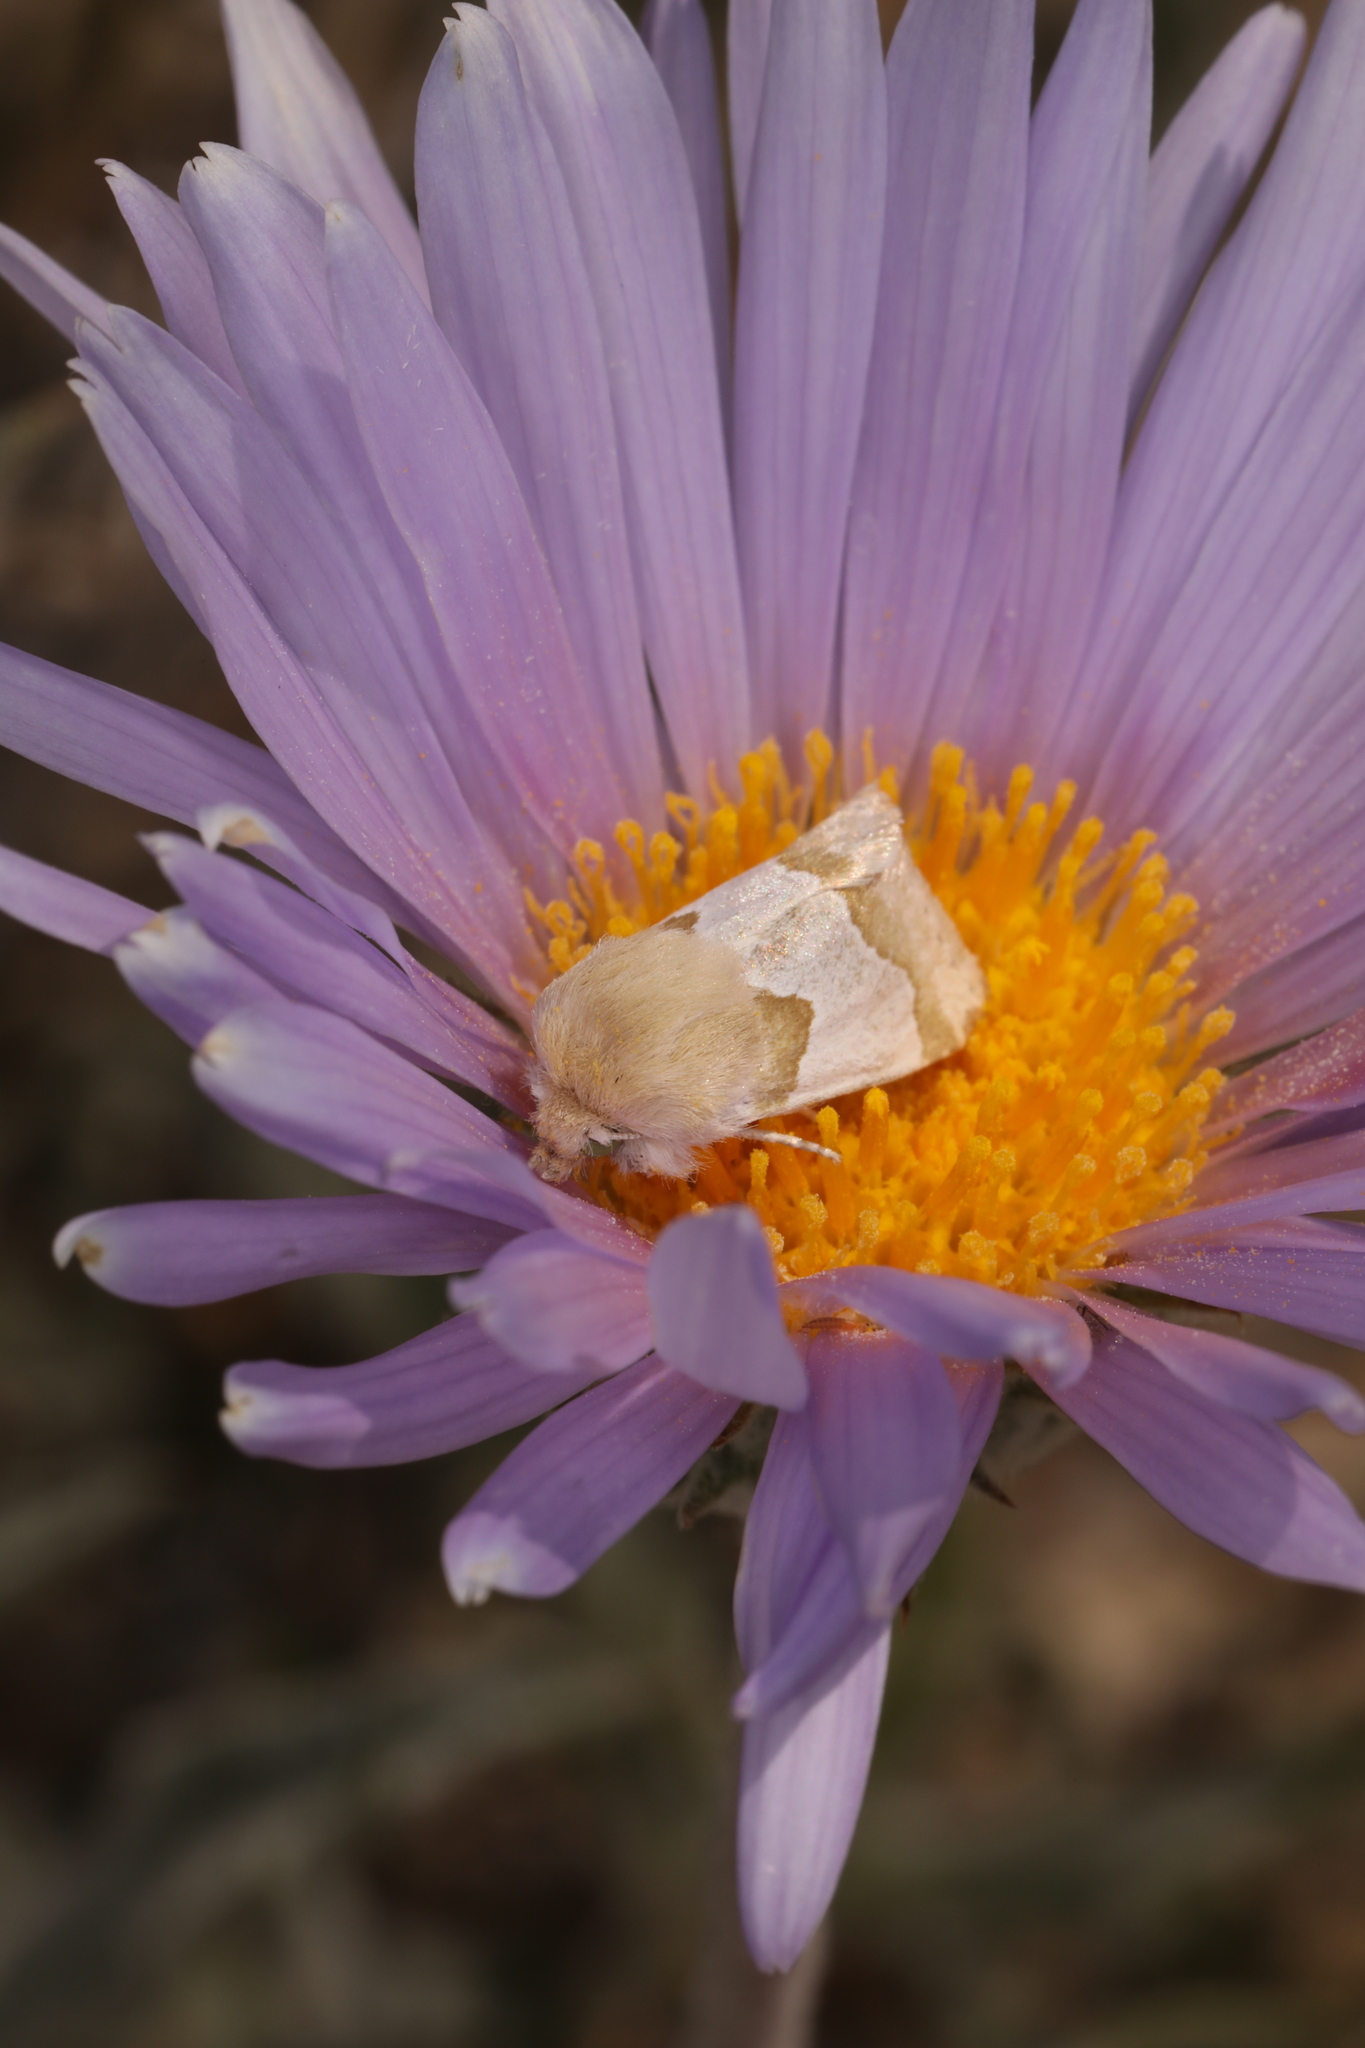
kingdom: Plantae
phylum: Tracheophyta
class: Magnoliopsida
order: Asterales
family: Asteraceae
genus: Xylorhiza
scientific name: Xylorhiza tortifolia
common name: Hurt-leaf woody-aster
